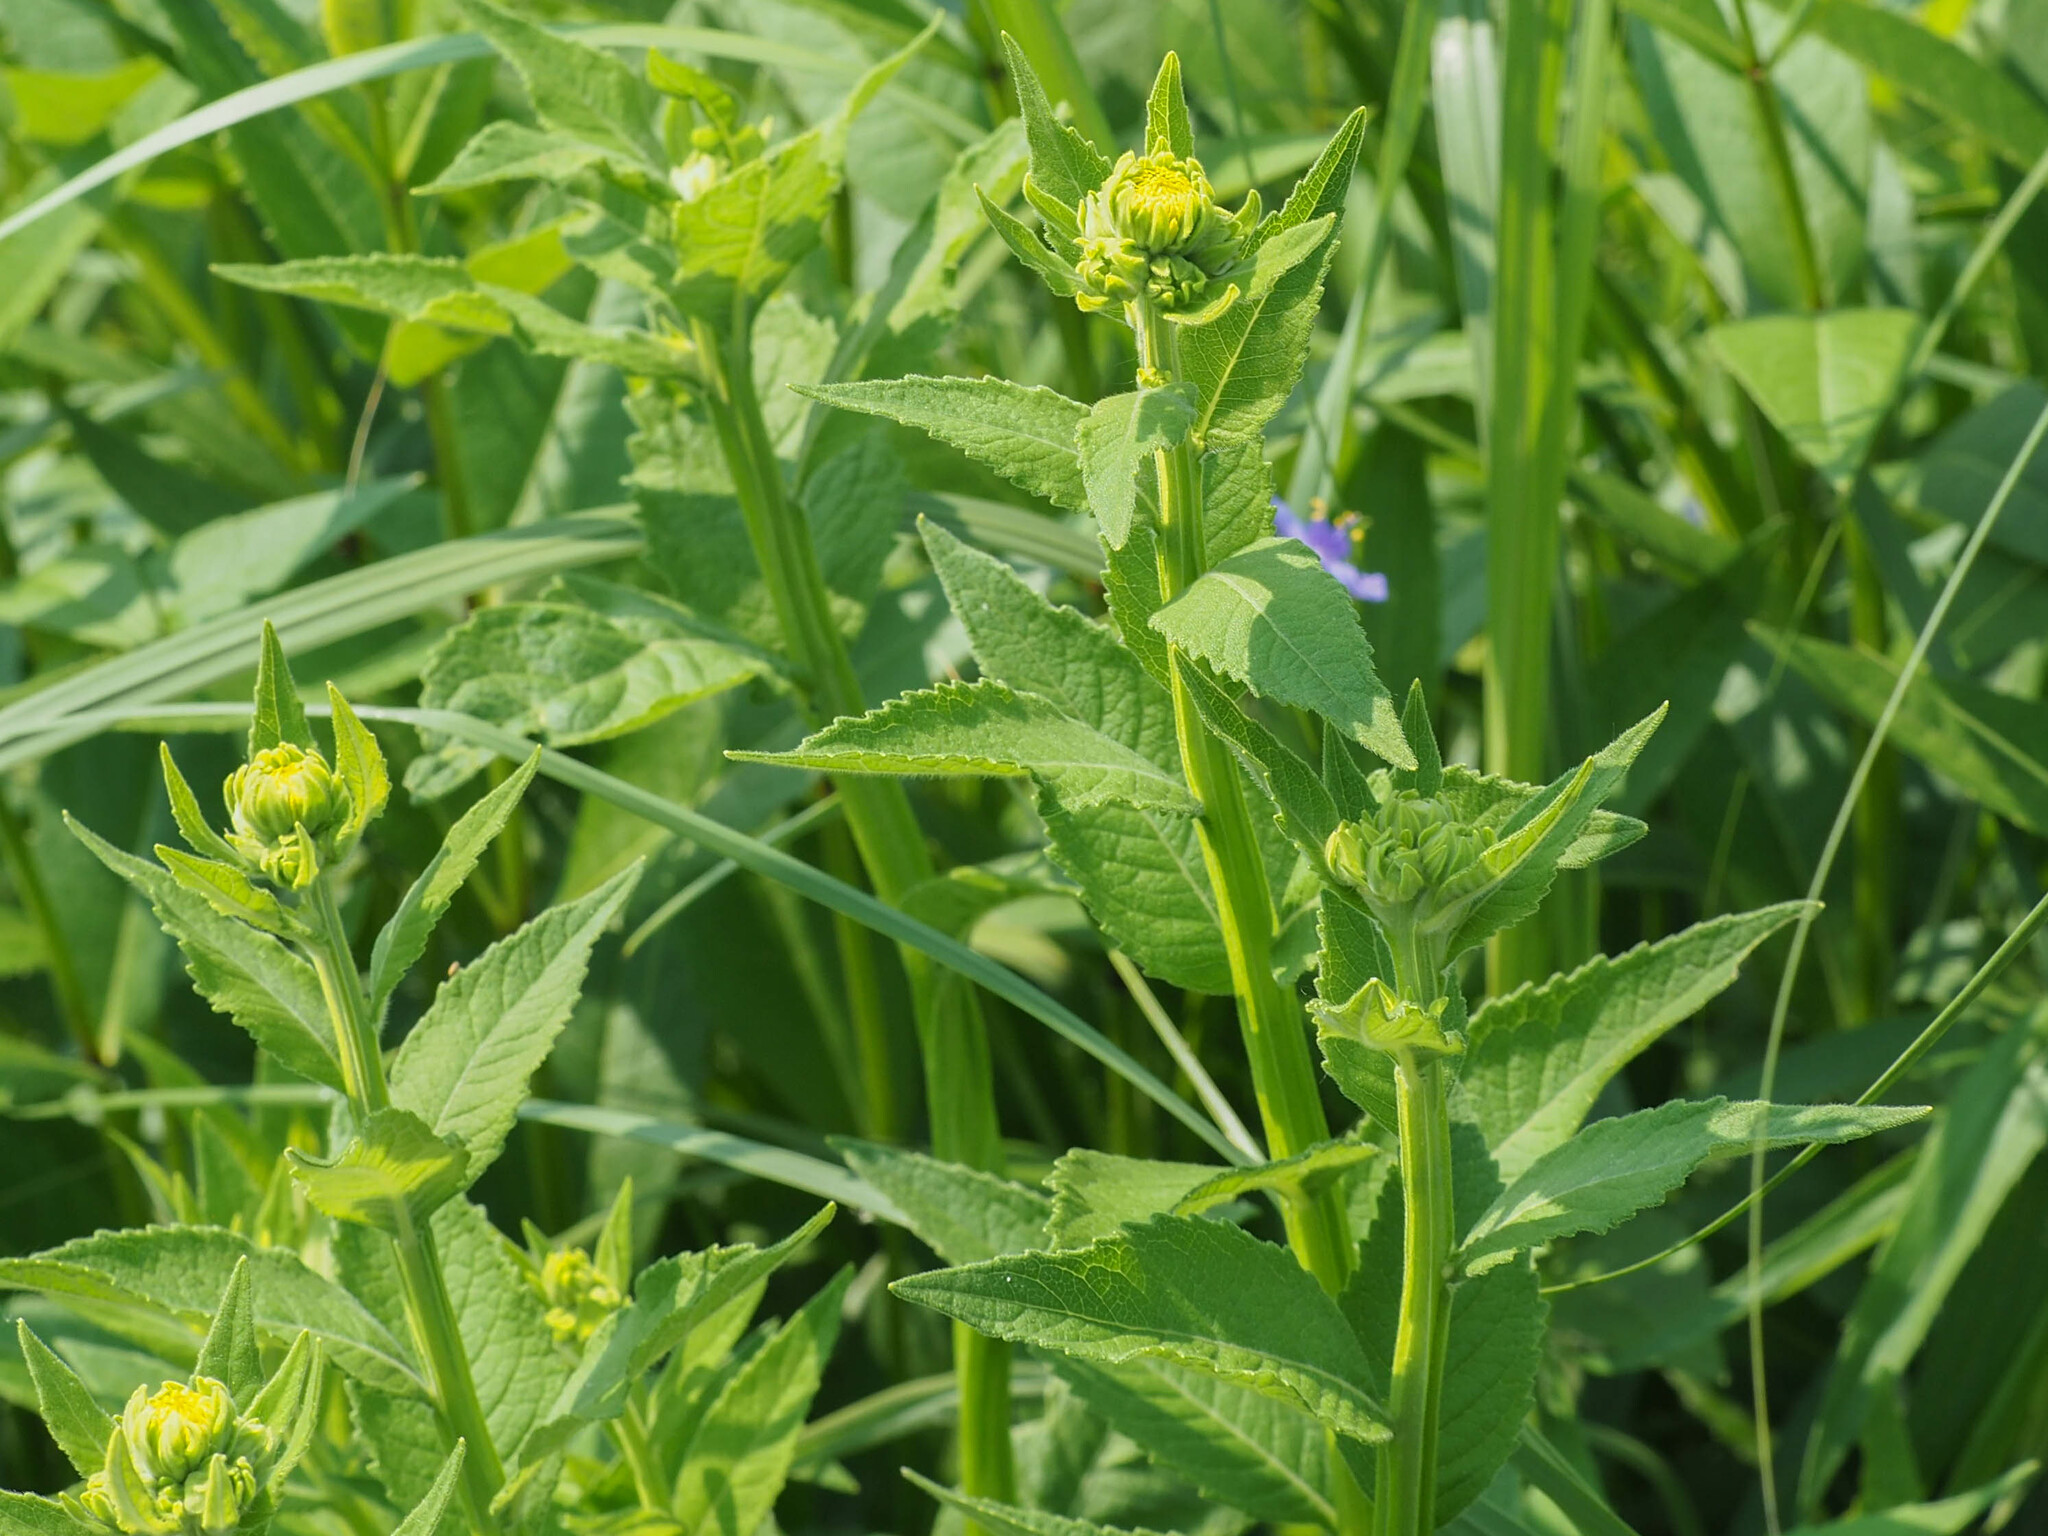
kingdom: Plantae
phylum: Tracheophyta
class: Magnoliopsida
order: Asterales
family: Asteraceae
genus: Verbesina
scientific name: Verbesina helianthoides
